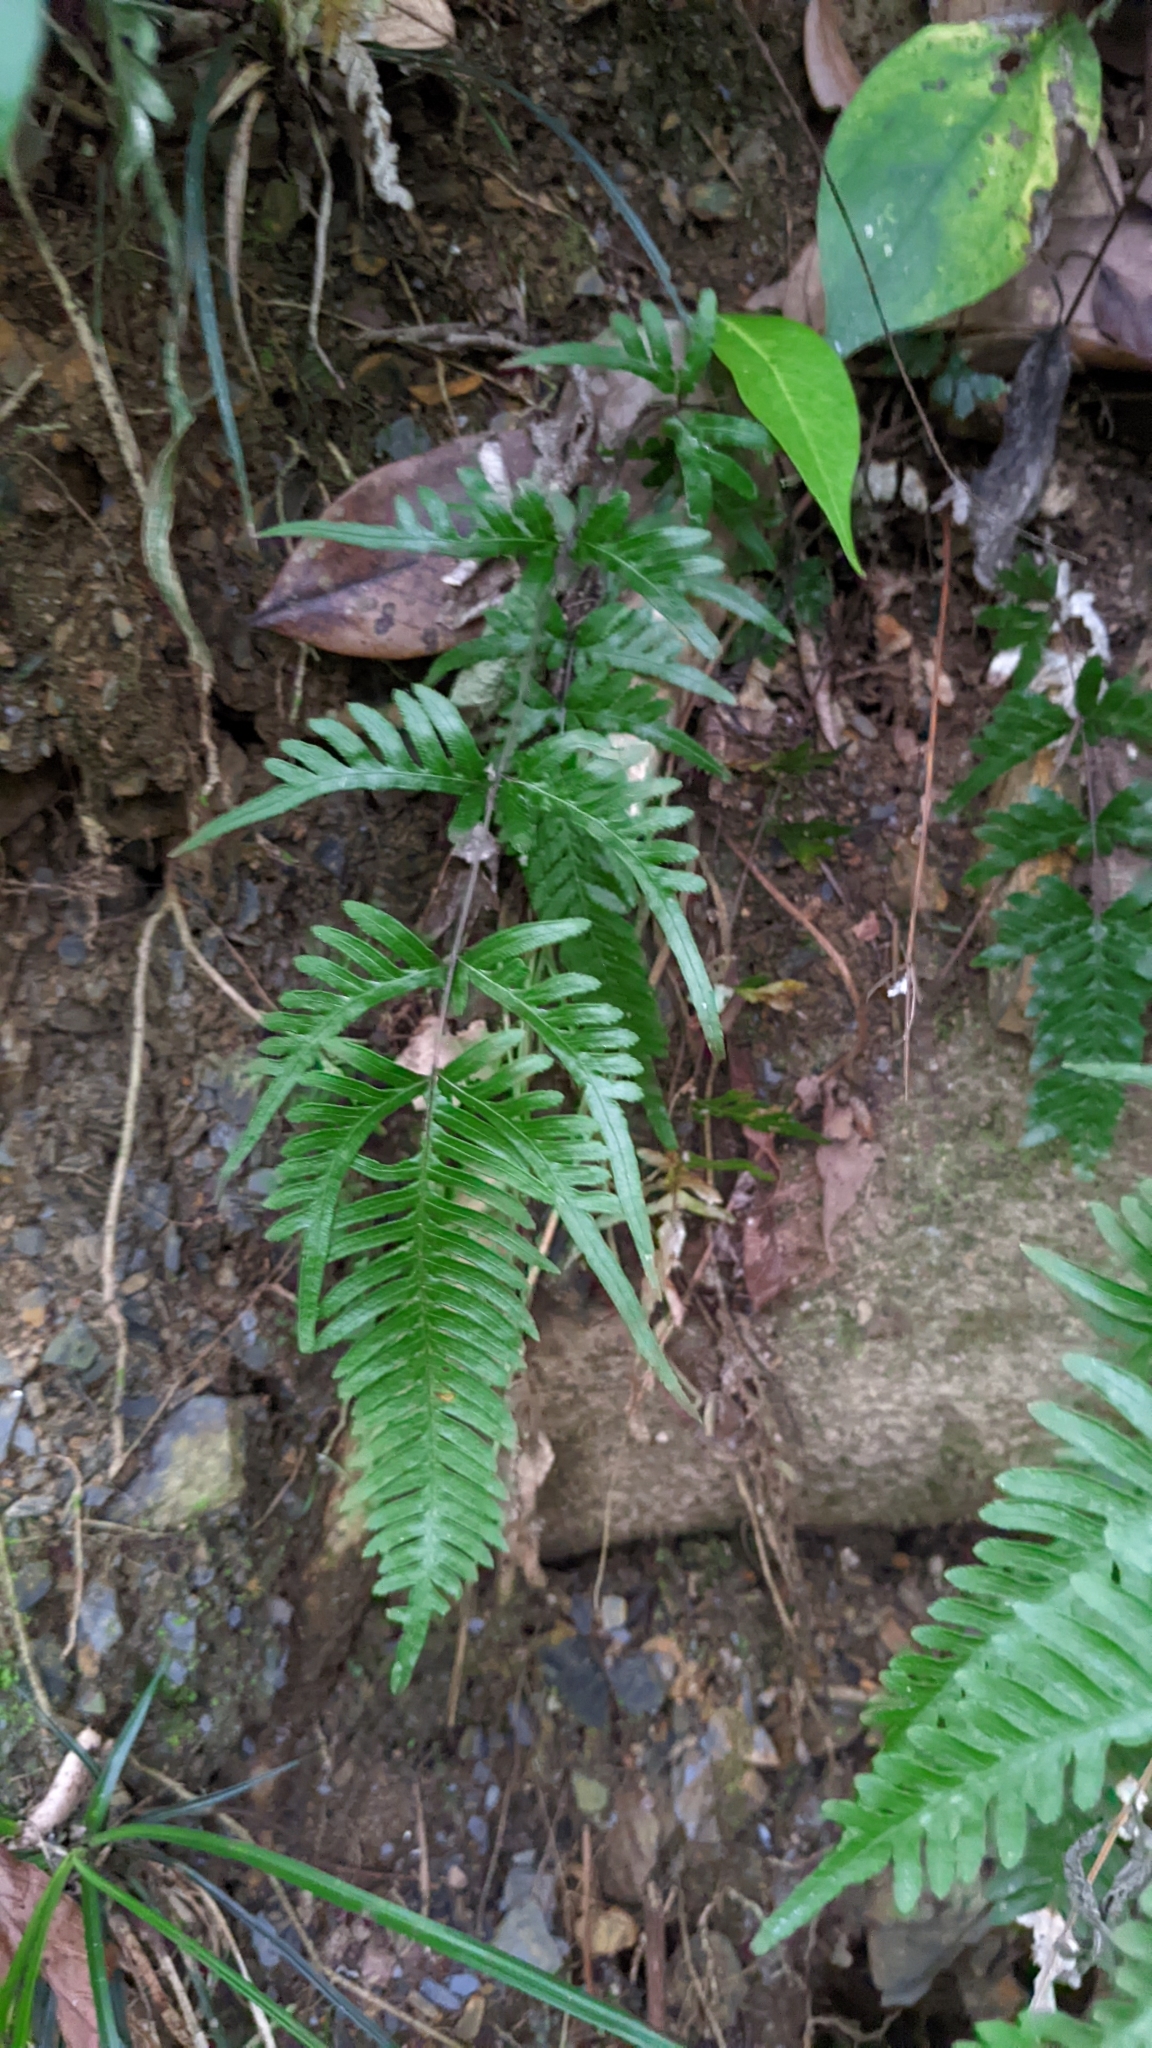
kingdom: Plantae
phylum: Tracheophyta
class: Polypodiopsida
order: Polypodiales
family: Pteridaceae
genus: Pteris
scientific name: Pteris dispar
